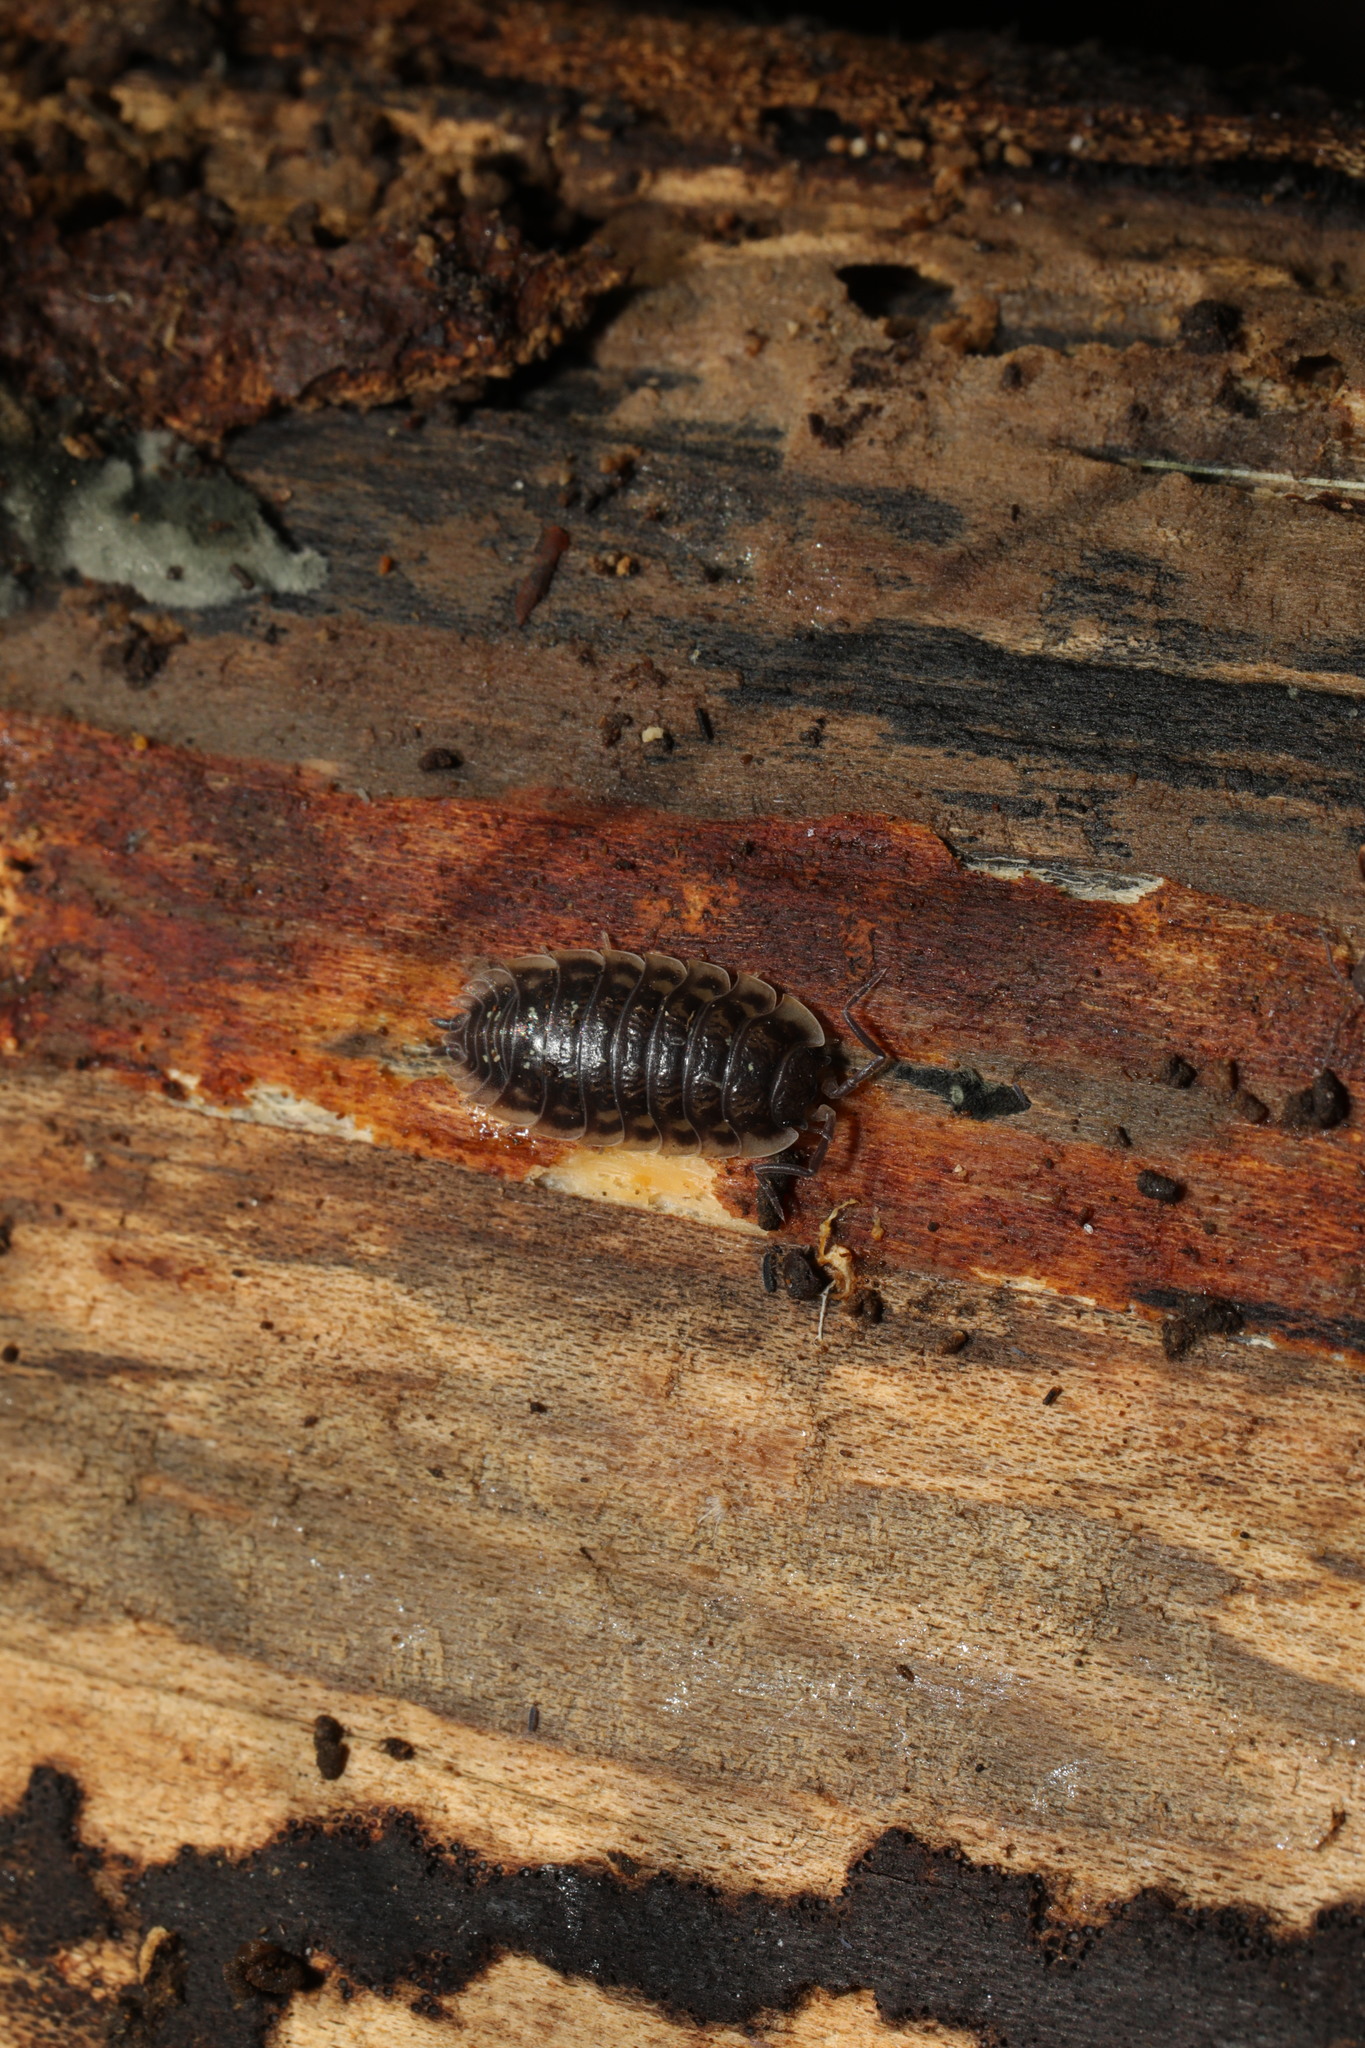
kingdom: Animalia
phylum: Arthropoda
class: Malacostraca
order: Isopoda
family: Oniscidae
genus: Oniscus
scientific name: Oniscus asellus
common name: Common shiny woodlouse
